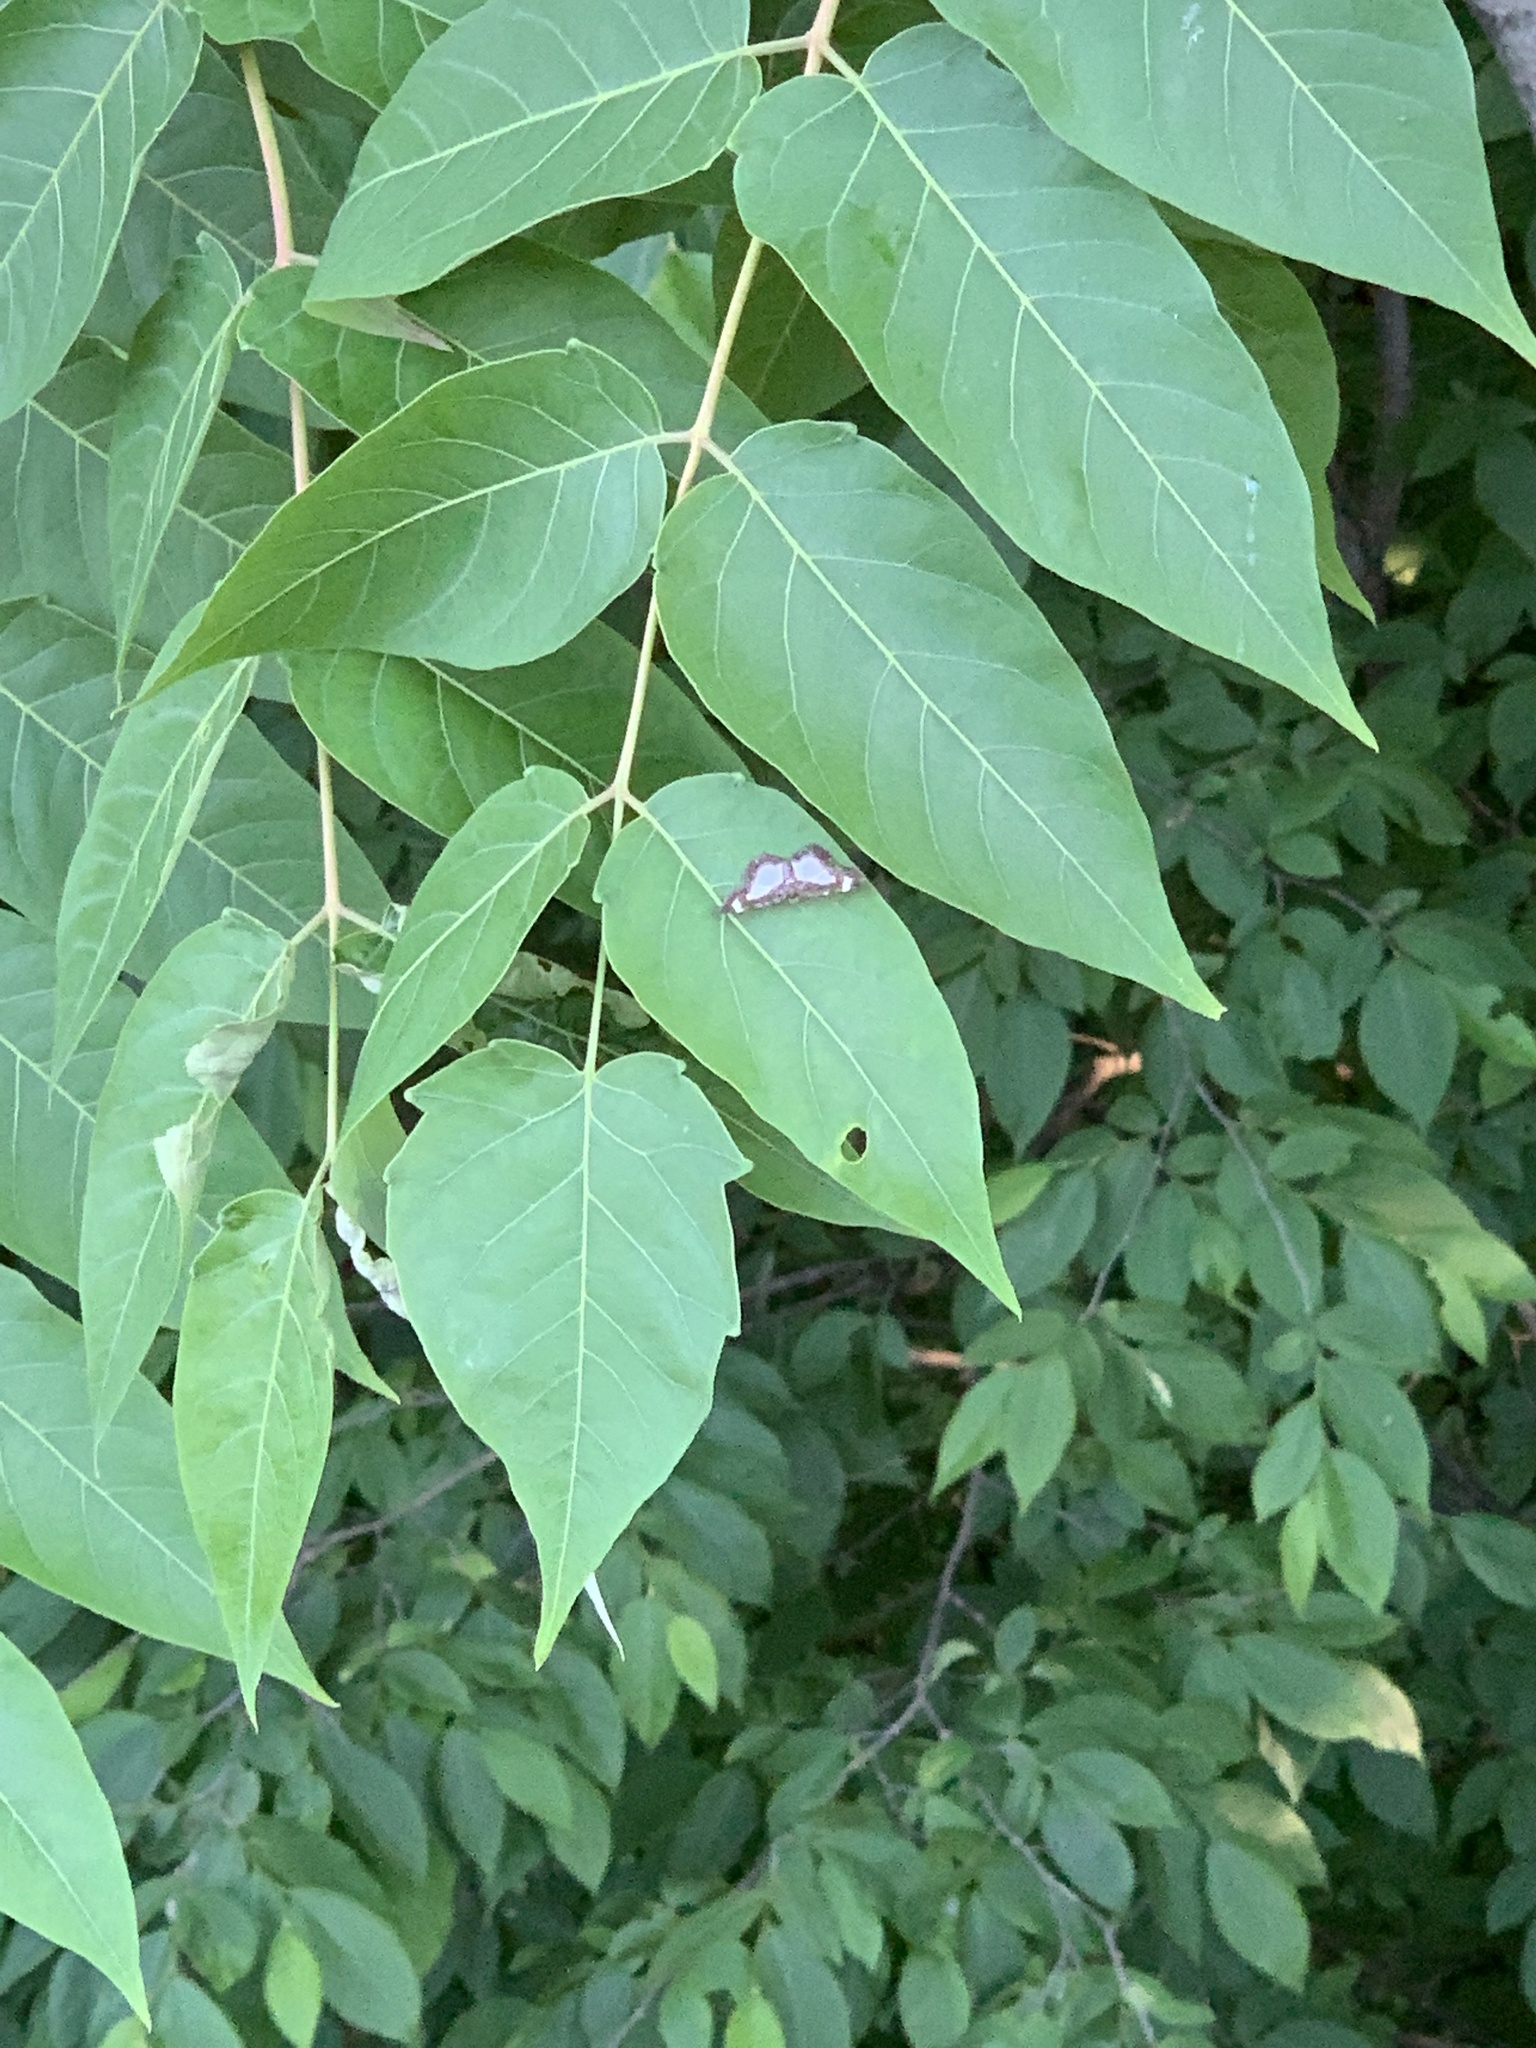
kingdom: Animalia
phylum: Arthropoda
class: Insecta
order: Lepidoptera
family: Geometridae
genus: Heliomata
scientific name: Heliomata cycladata
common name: Common spring moth
